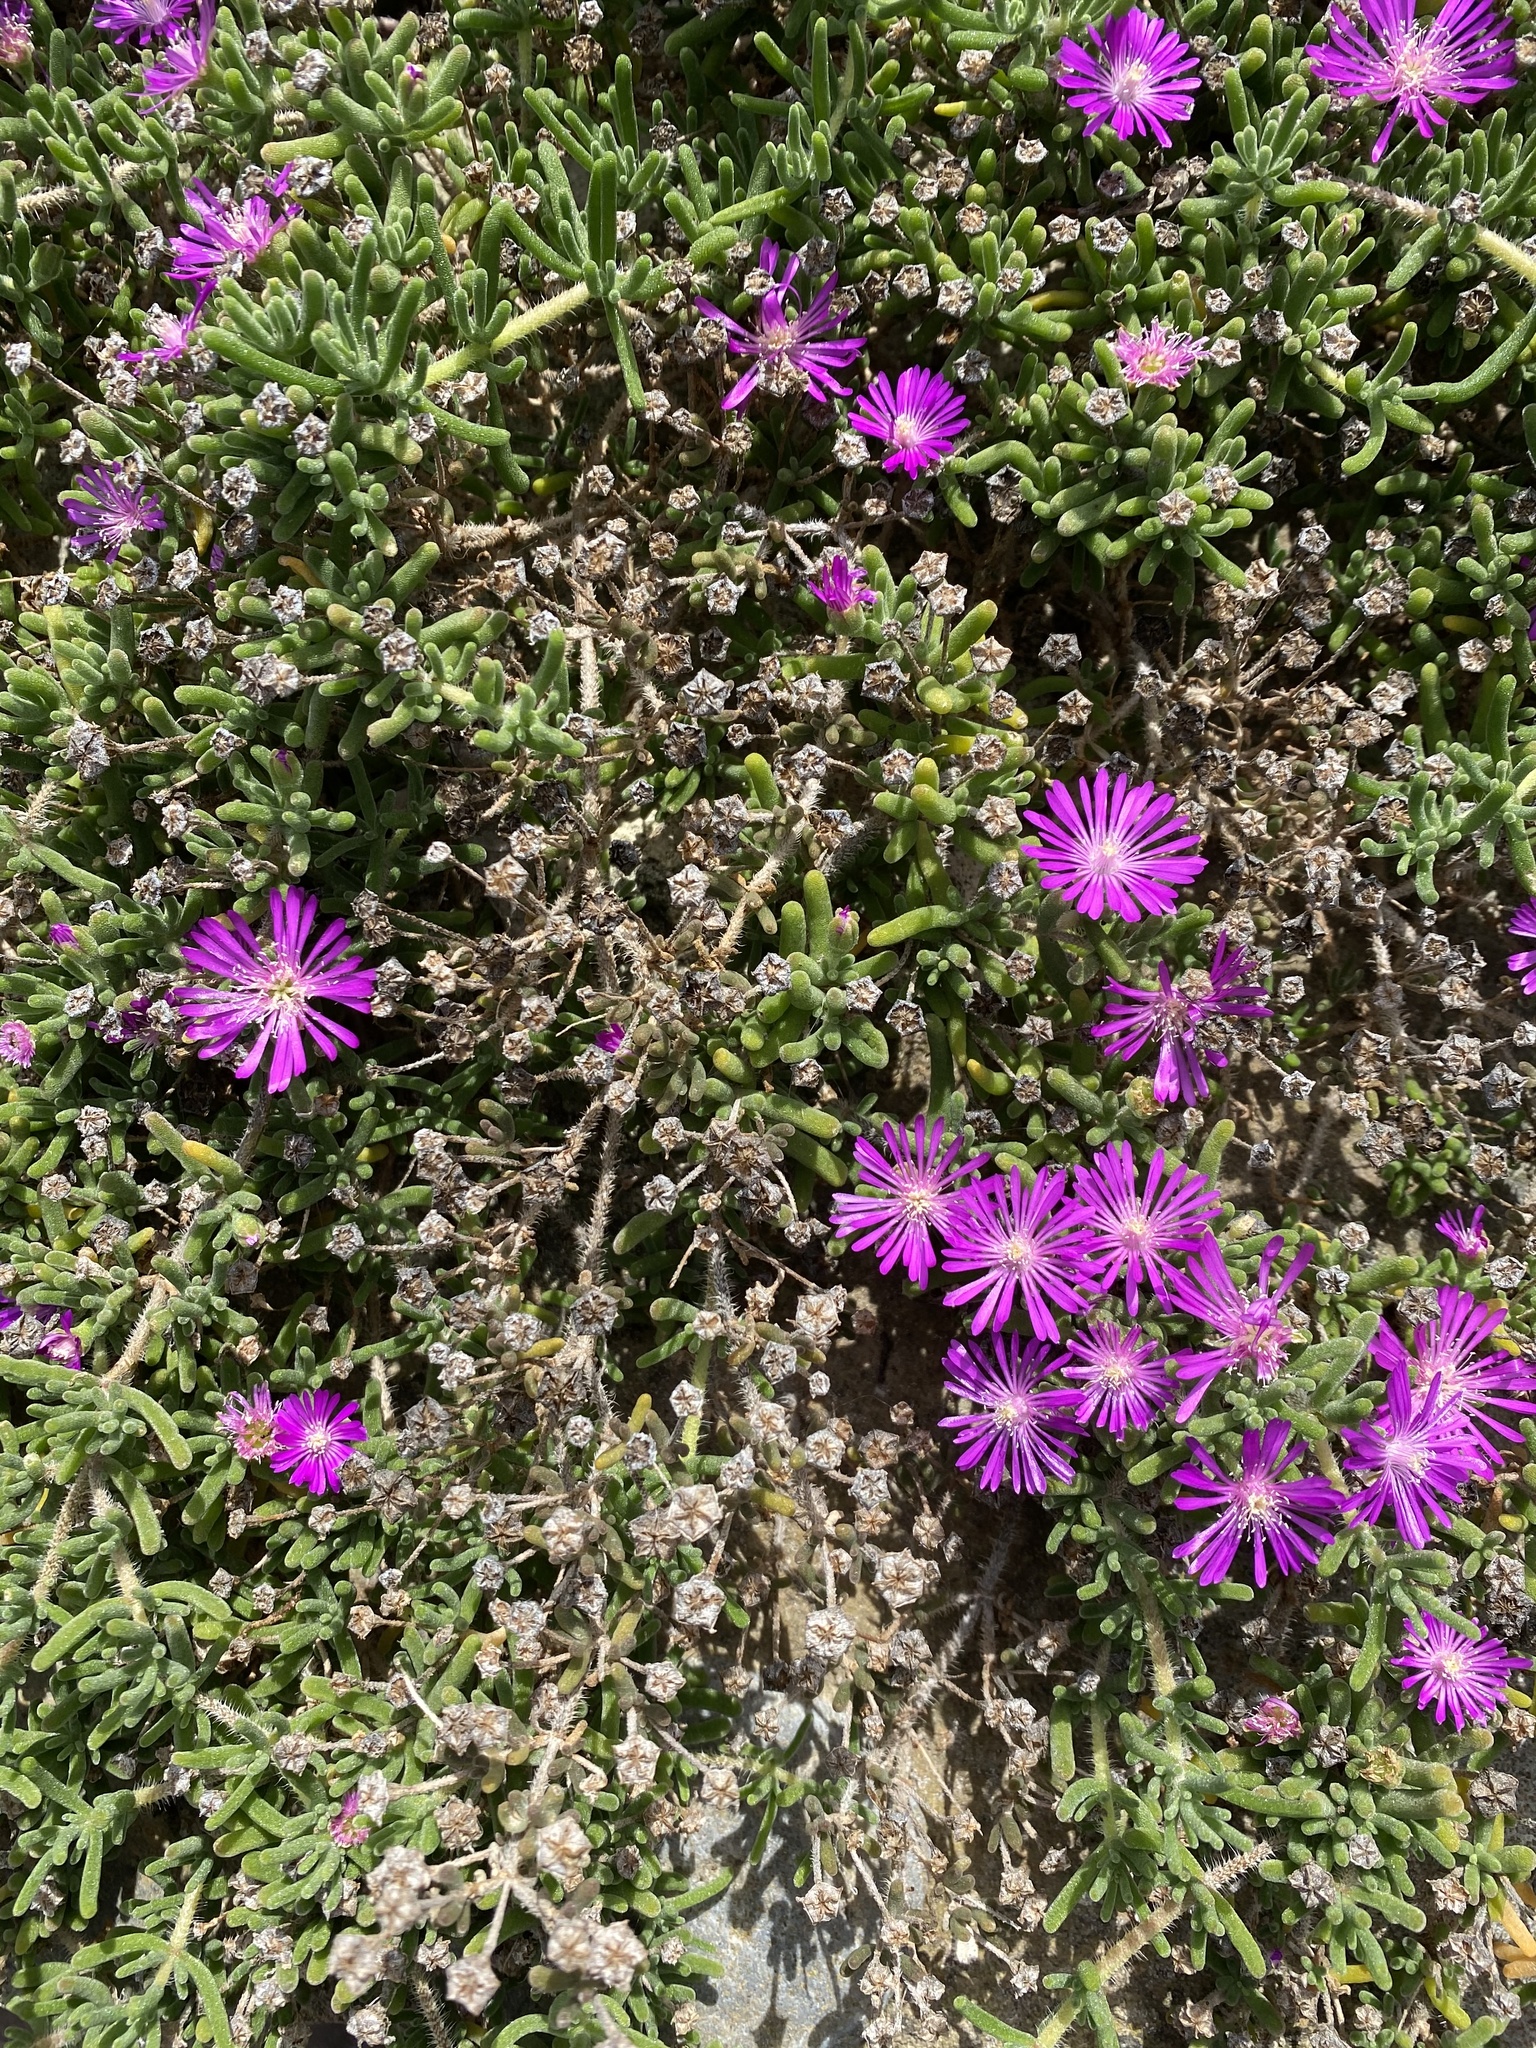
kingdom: Plantae
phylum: Tracheophyta
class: Magnoliopsida
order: Caryophyllales
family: Aizoaceae
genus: Drosanthemum
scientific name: Drosanthemum floribundum
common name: Pale dewplant
